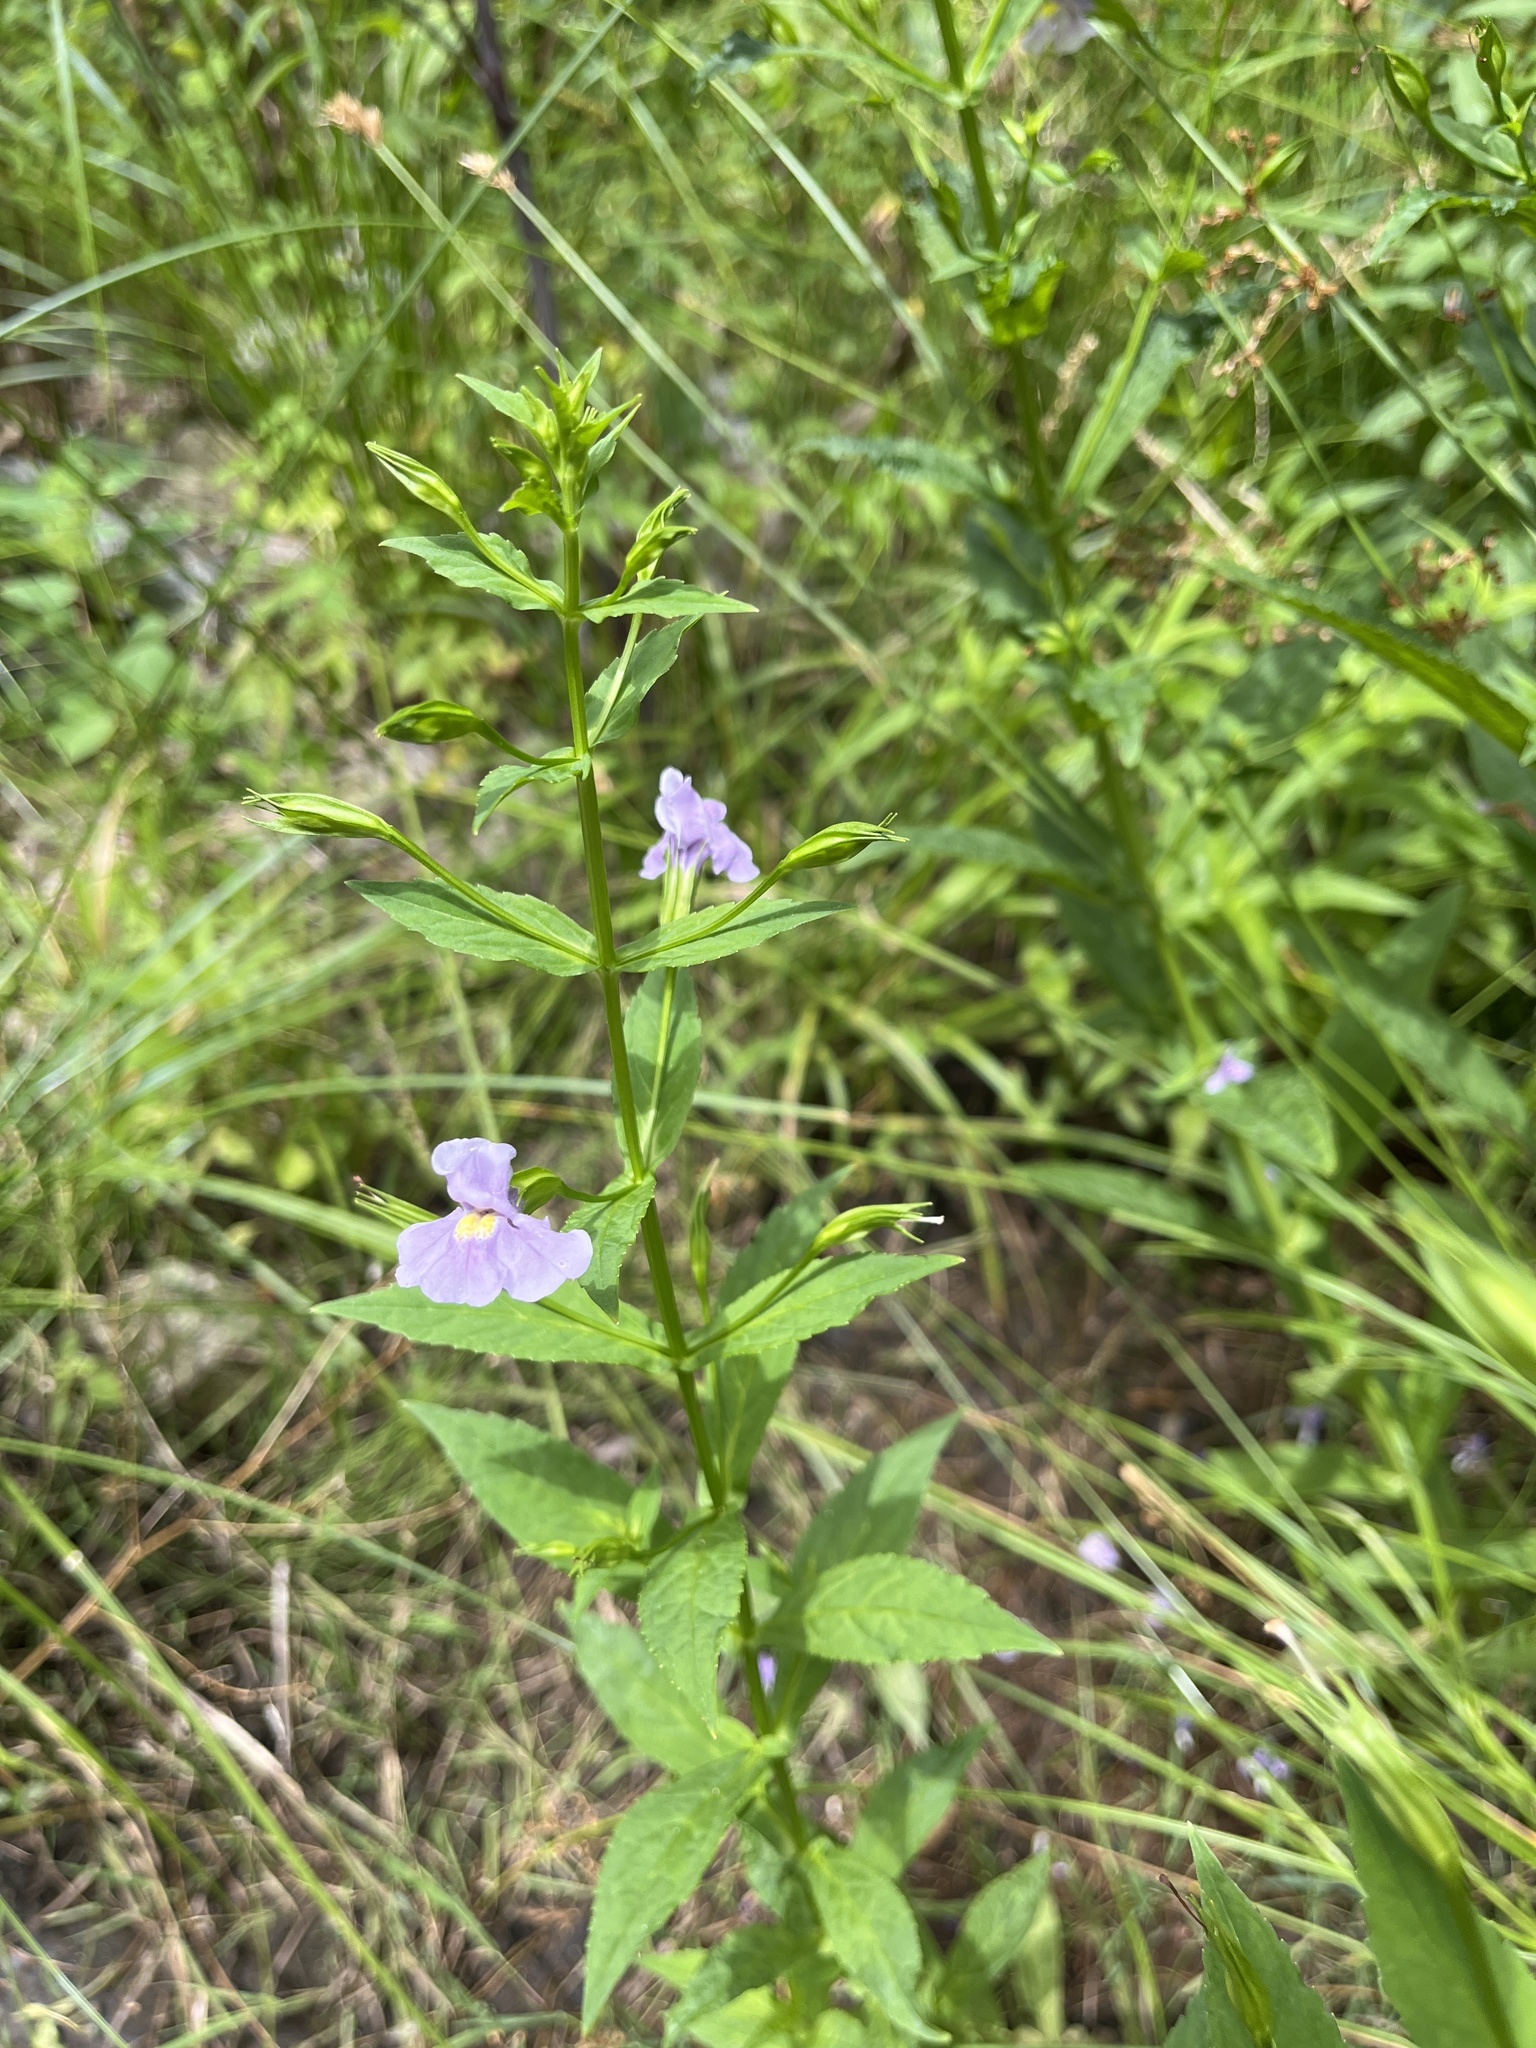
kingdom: Plantae
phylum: Tracheophyta
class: Magnoliopsida
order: Lamiales
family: Phrymaceae
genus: Mimulus
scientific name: Mimulus ringens
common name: Allegheny monkeyflower
